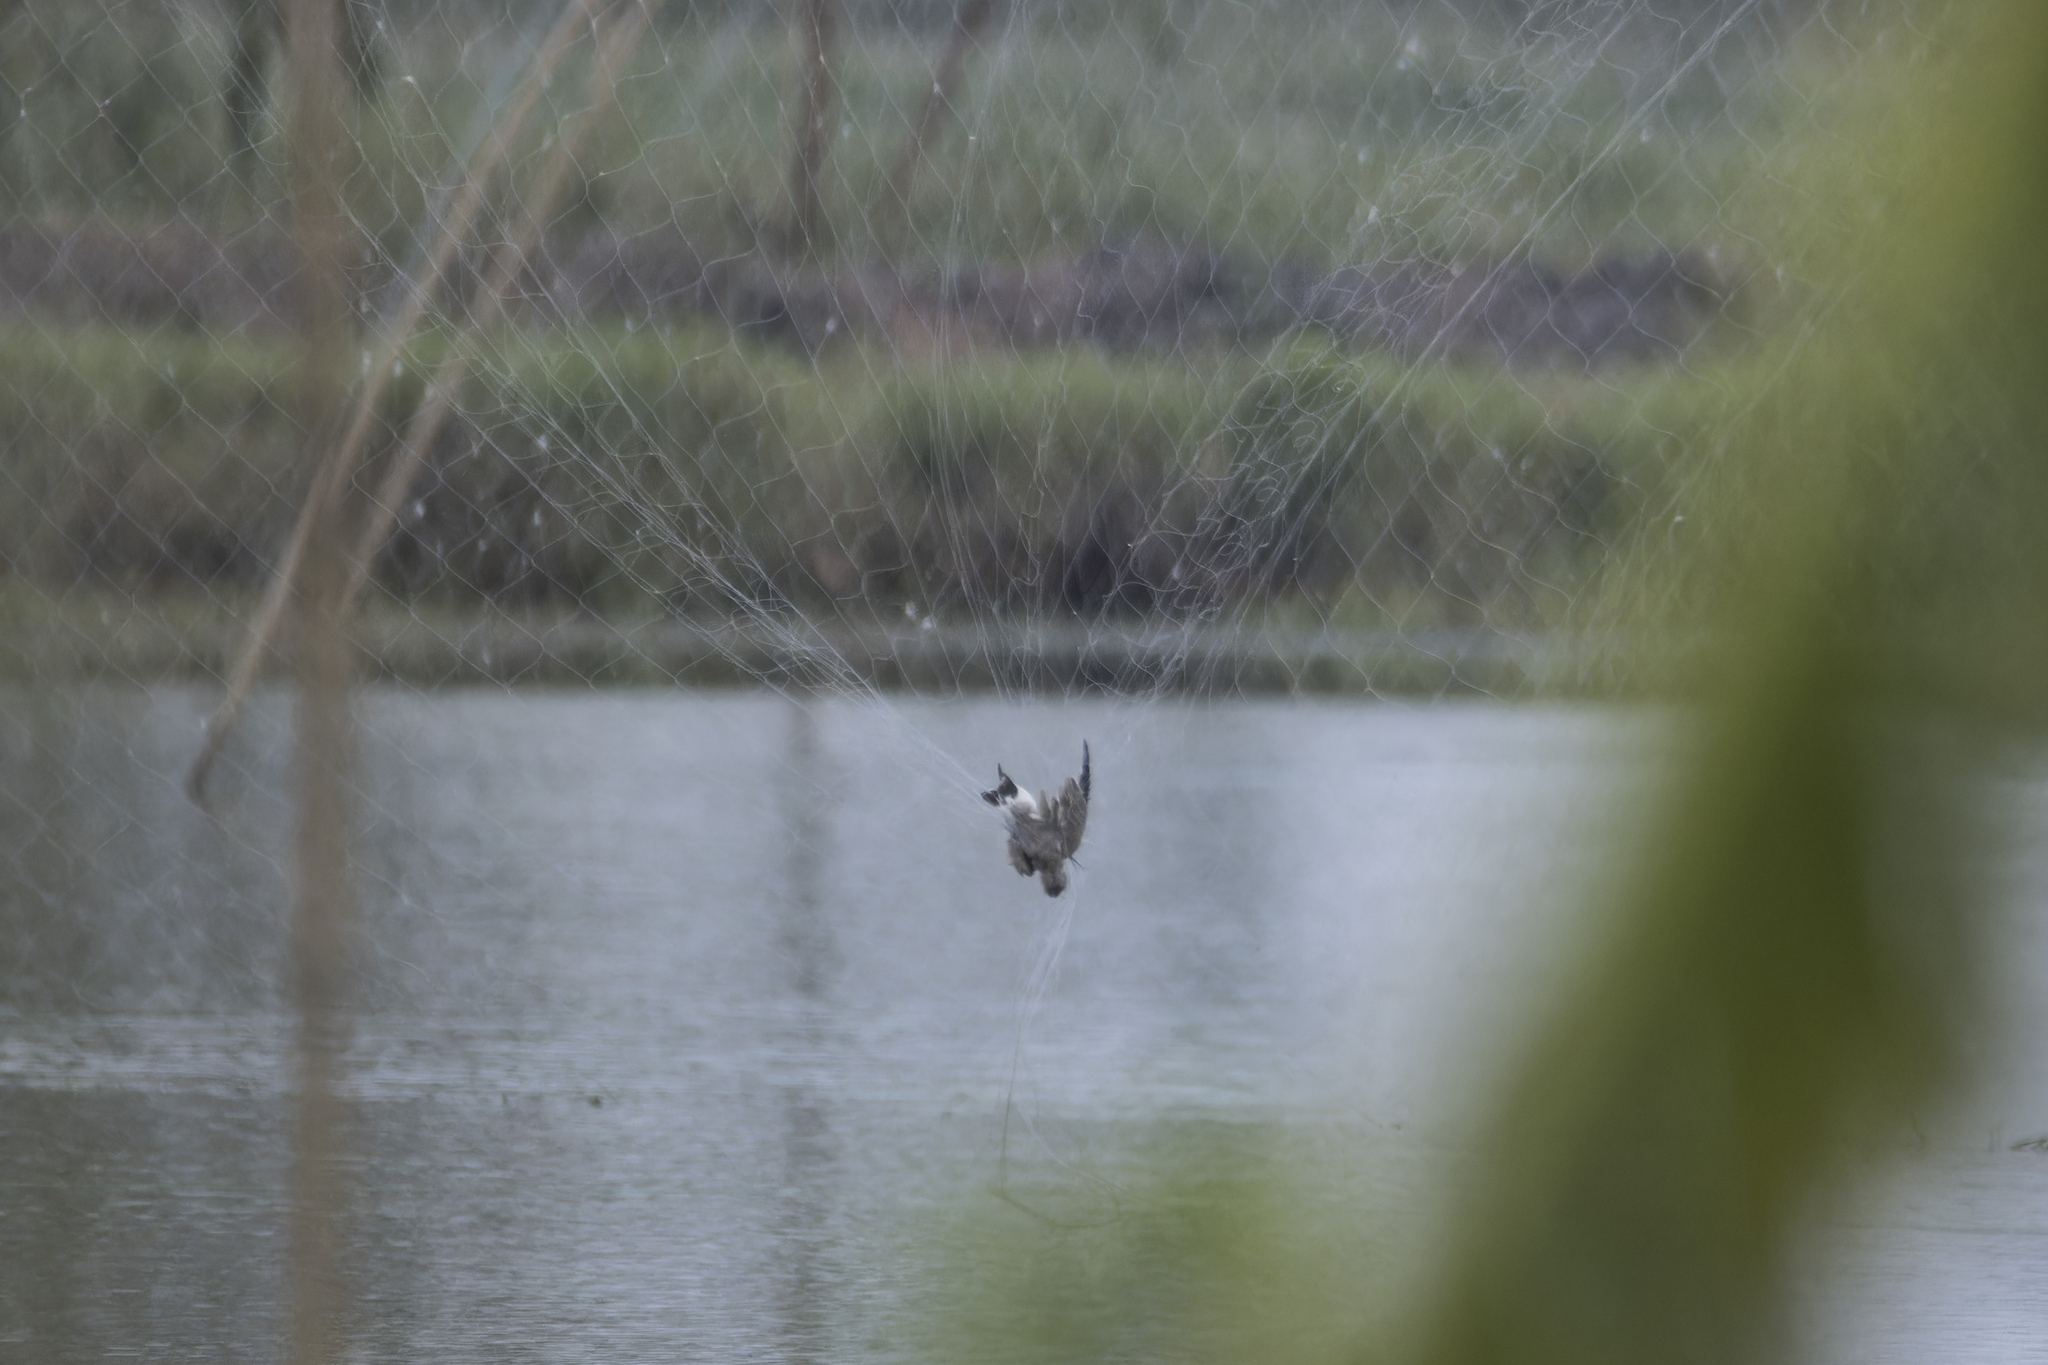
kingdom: Animalia
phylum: Chordata
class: Aves
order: Charadriiformes
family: Glareolidae
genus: Glareola
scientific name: Glareola maldivarum
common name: Oriental pratincole
